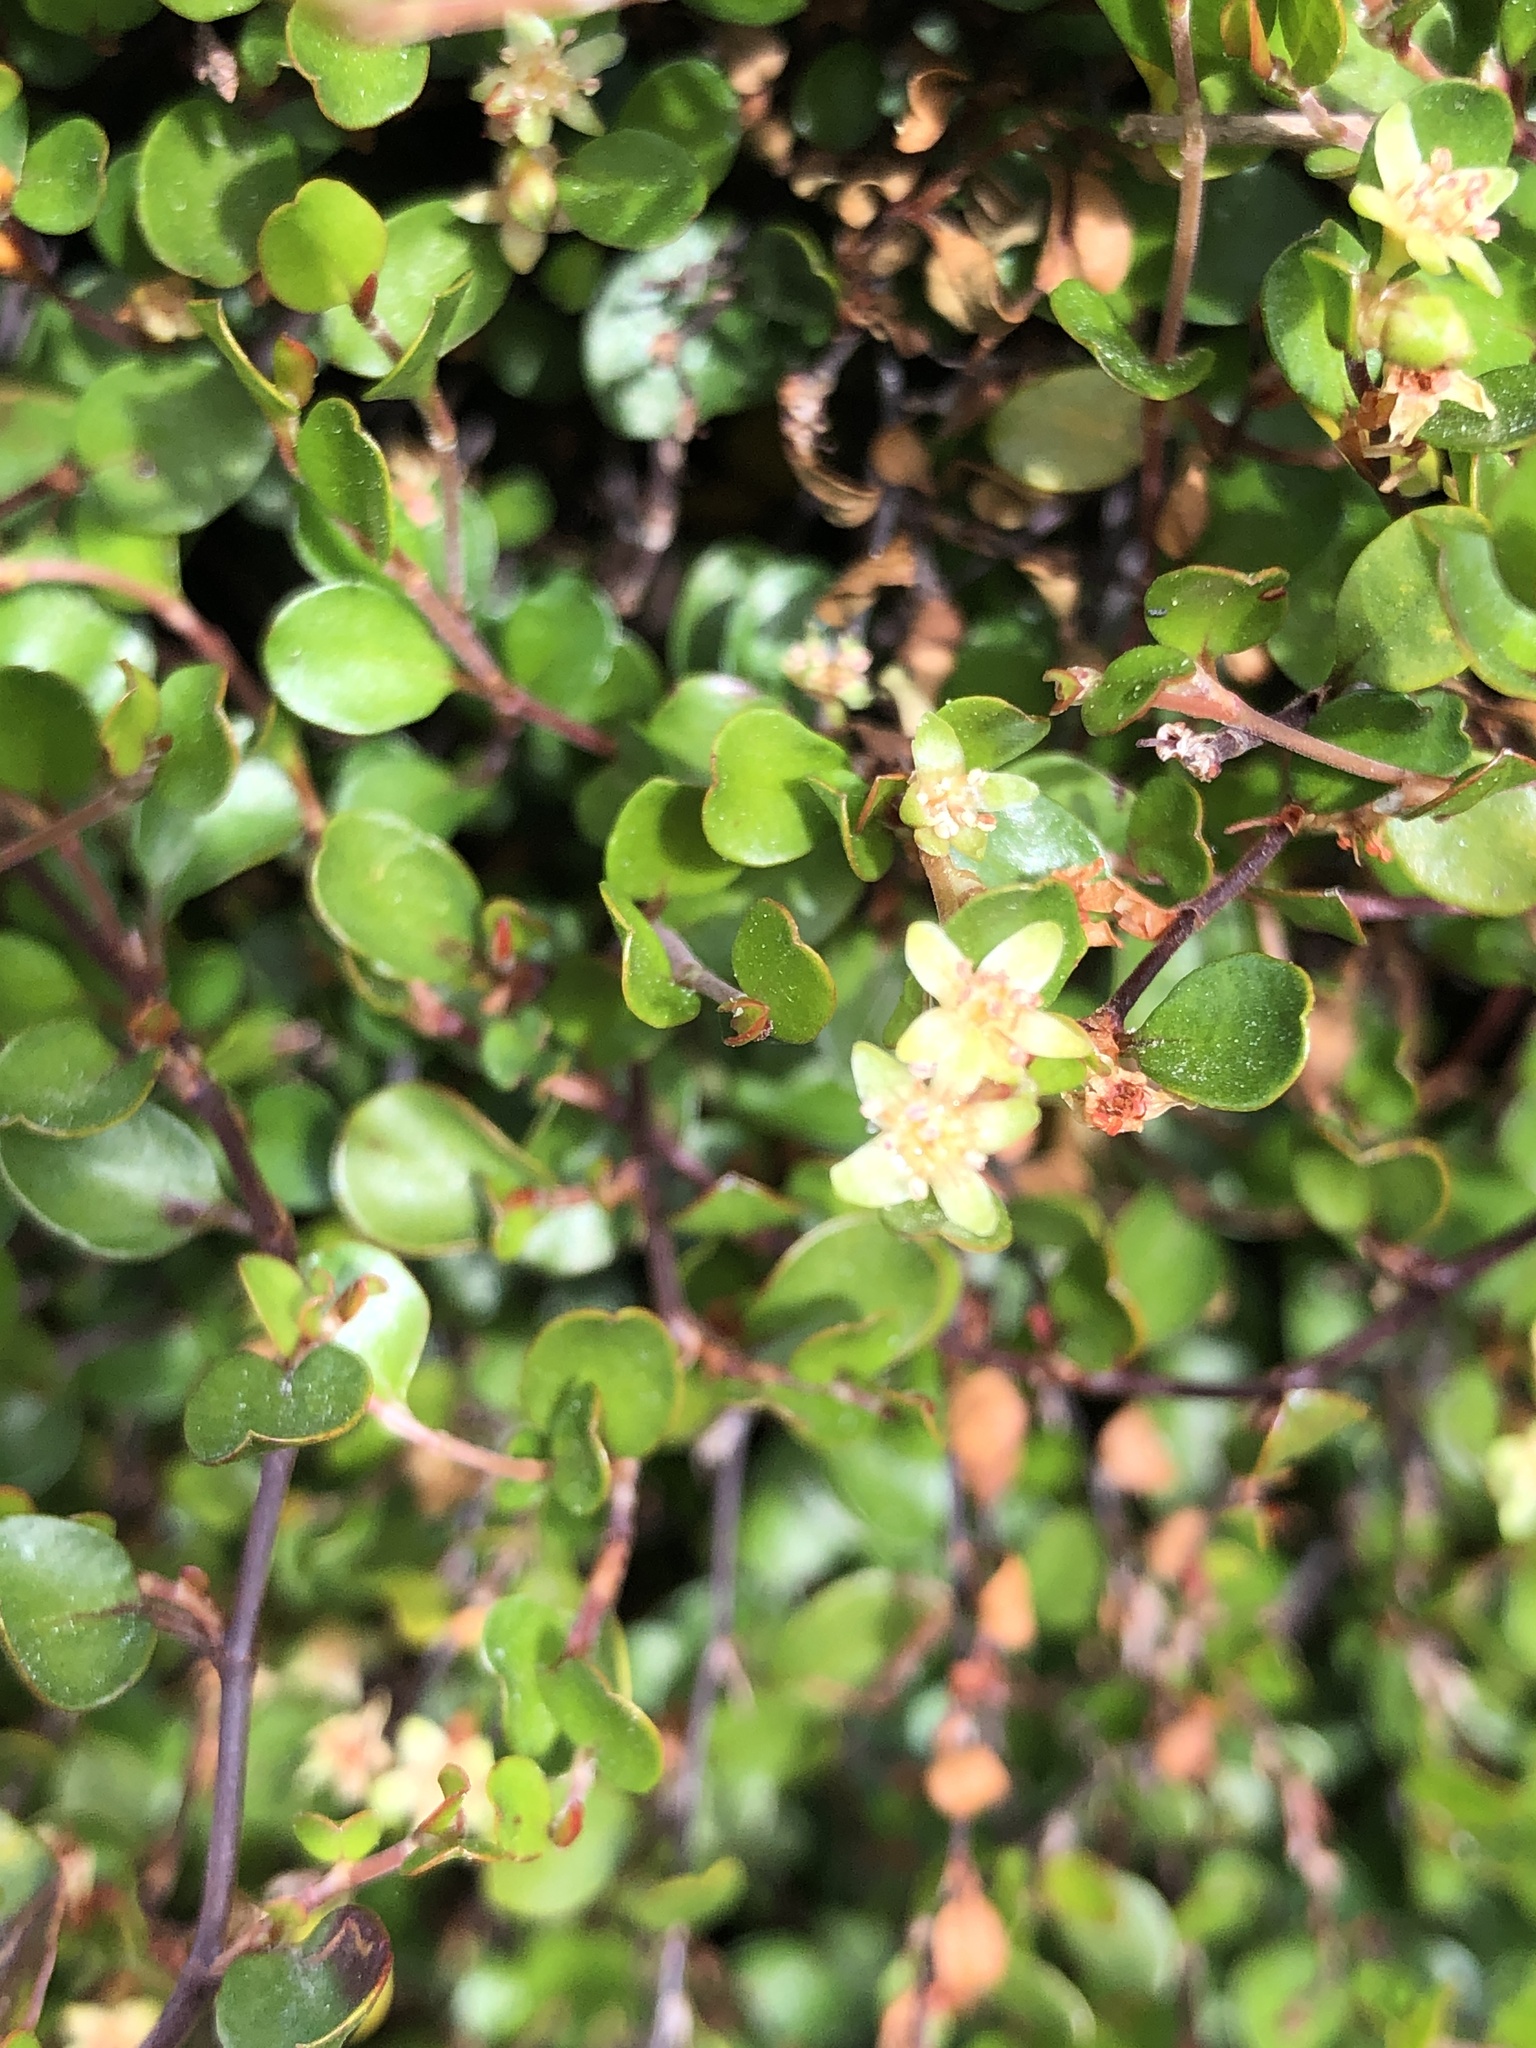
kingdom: Plantae
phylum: Tracheophyta
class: Magnoliopsida
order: Caryophyllales
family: Polygonaceae
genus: Muehlenbeckia
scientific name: Muehlenbeckia complexa
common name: Wireplant
